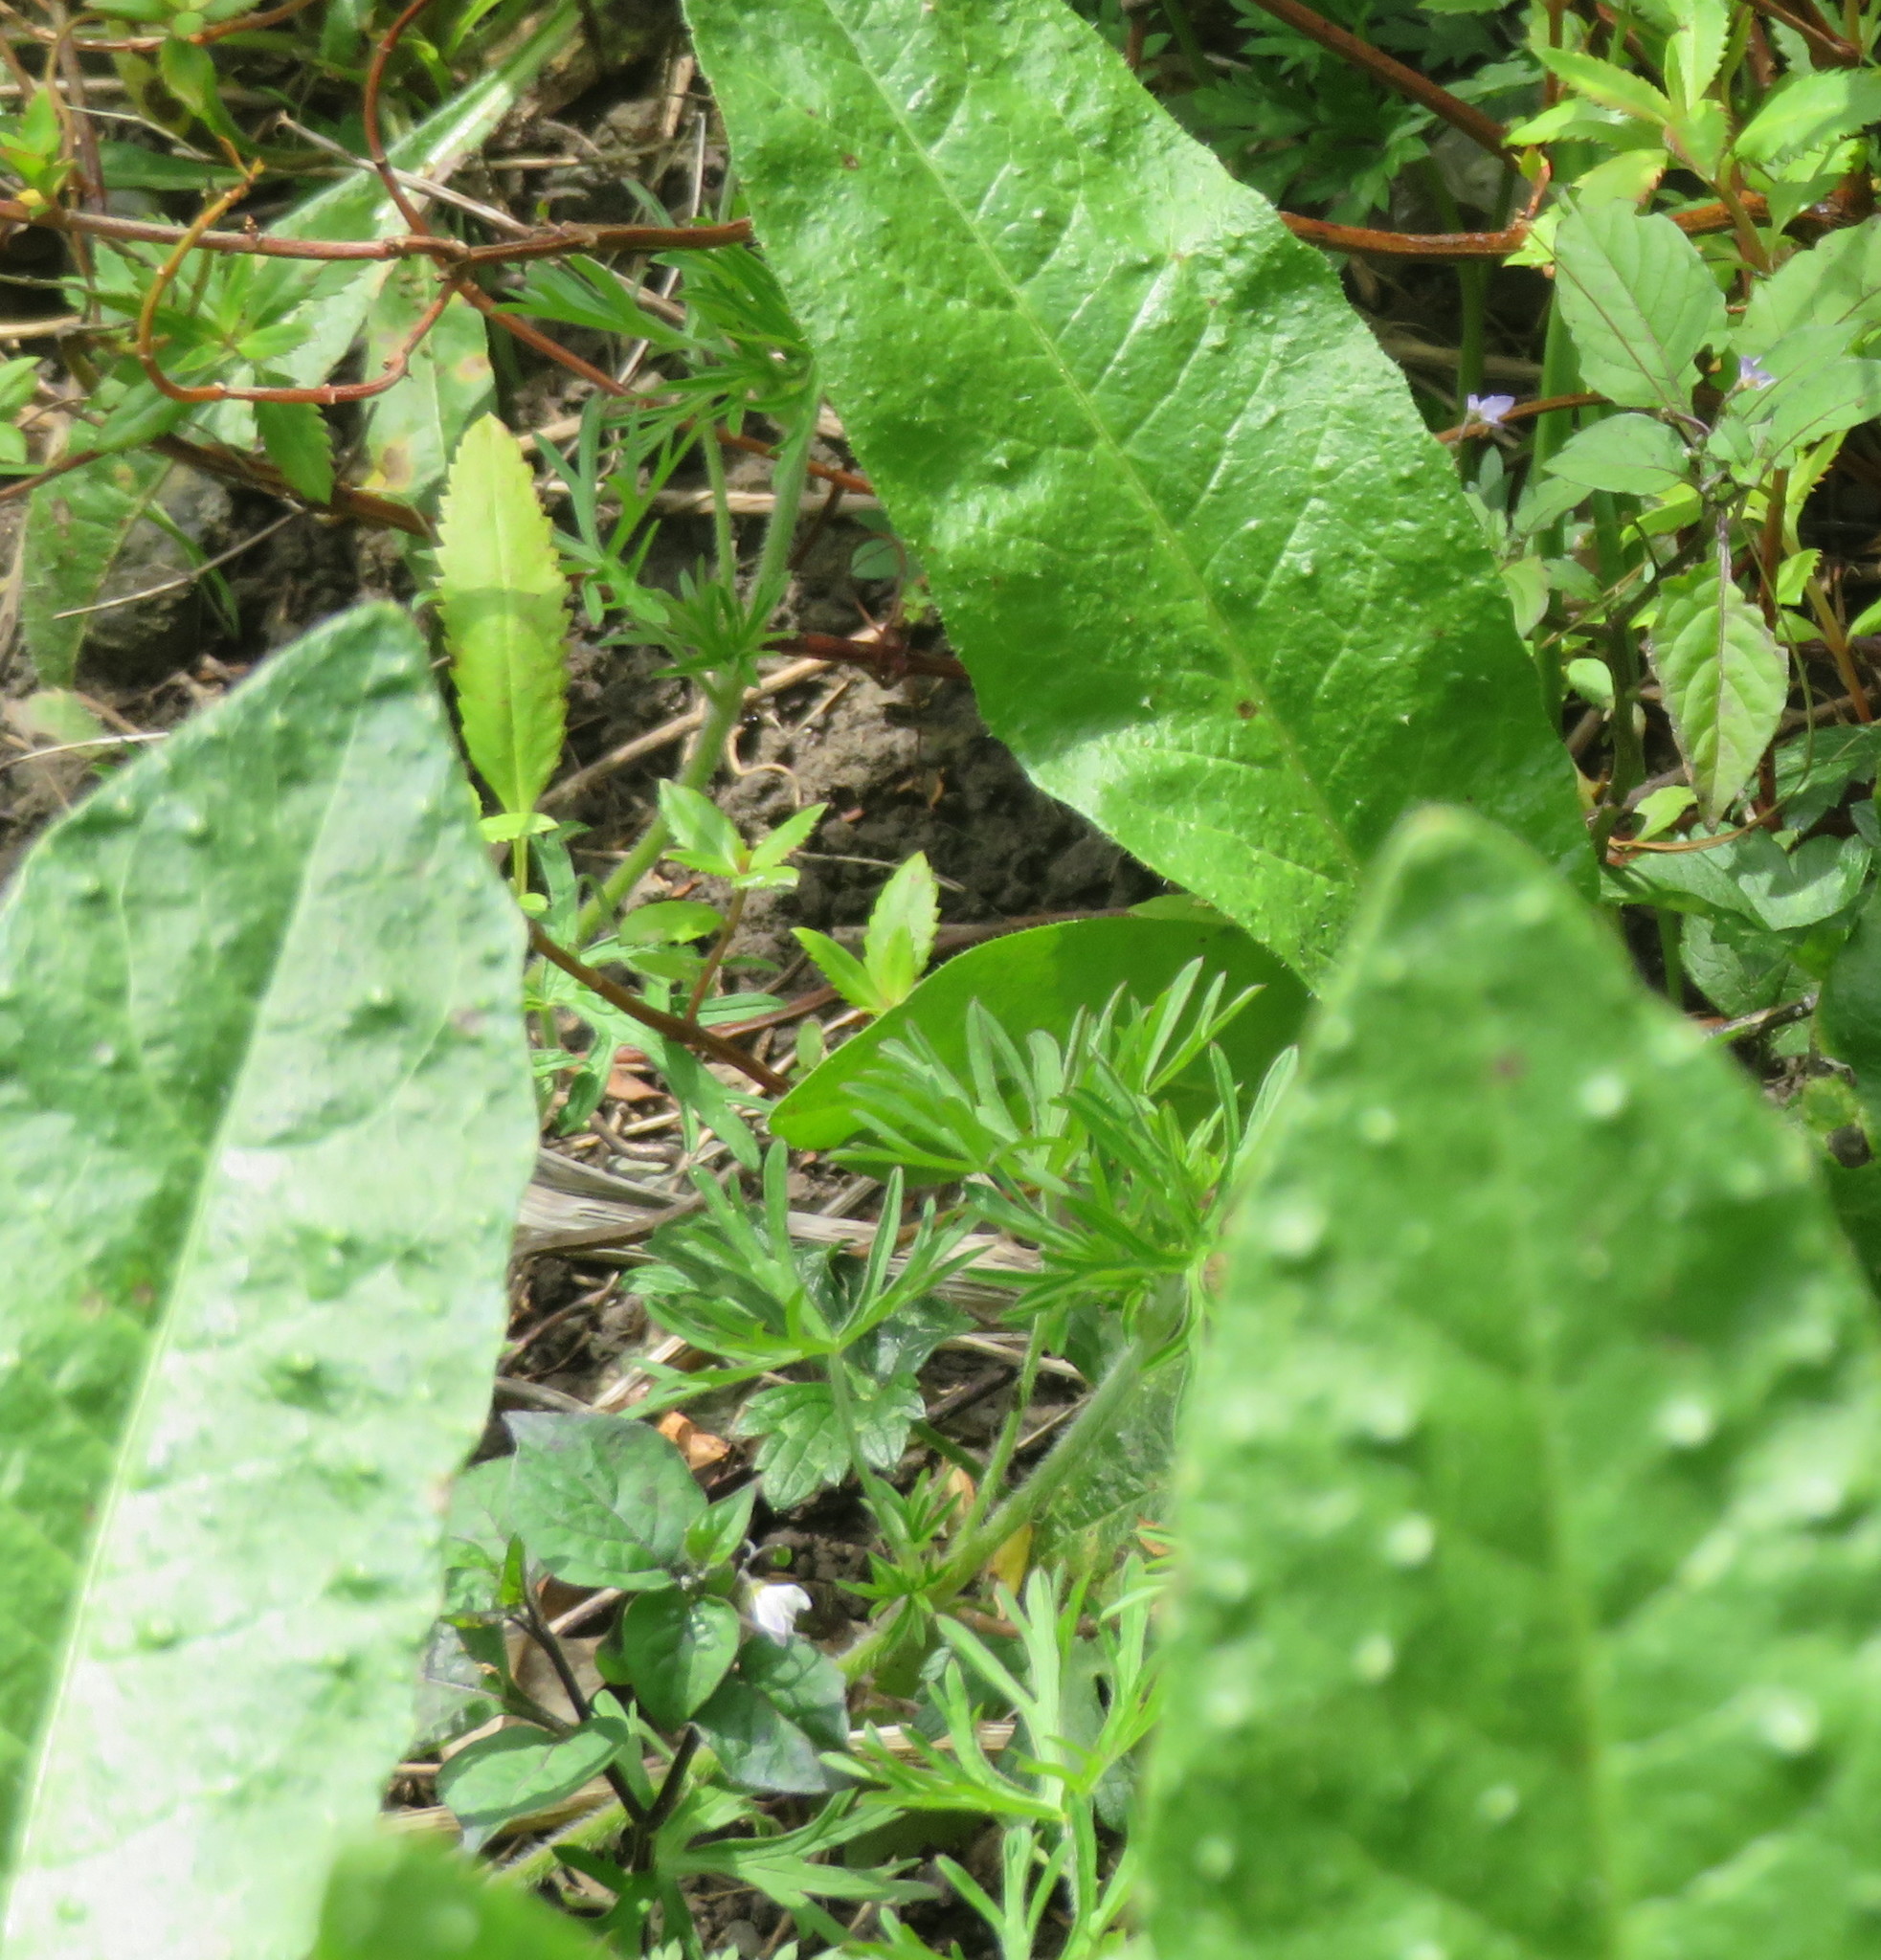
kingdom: Plantae
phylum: Tracheophyta
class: Magnoliopsida
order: Geraniales
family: Geraniaceae
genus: Geranium
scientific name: Geranium dissectum
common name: Cut-leaved crane's-bill
